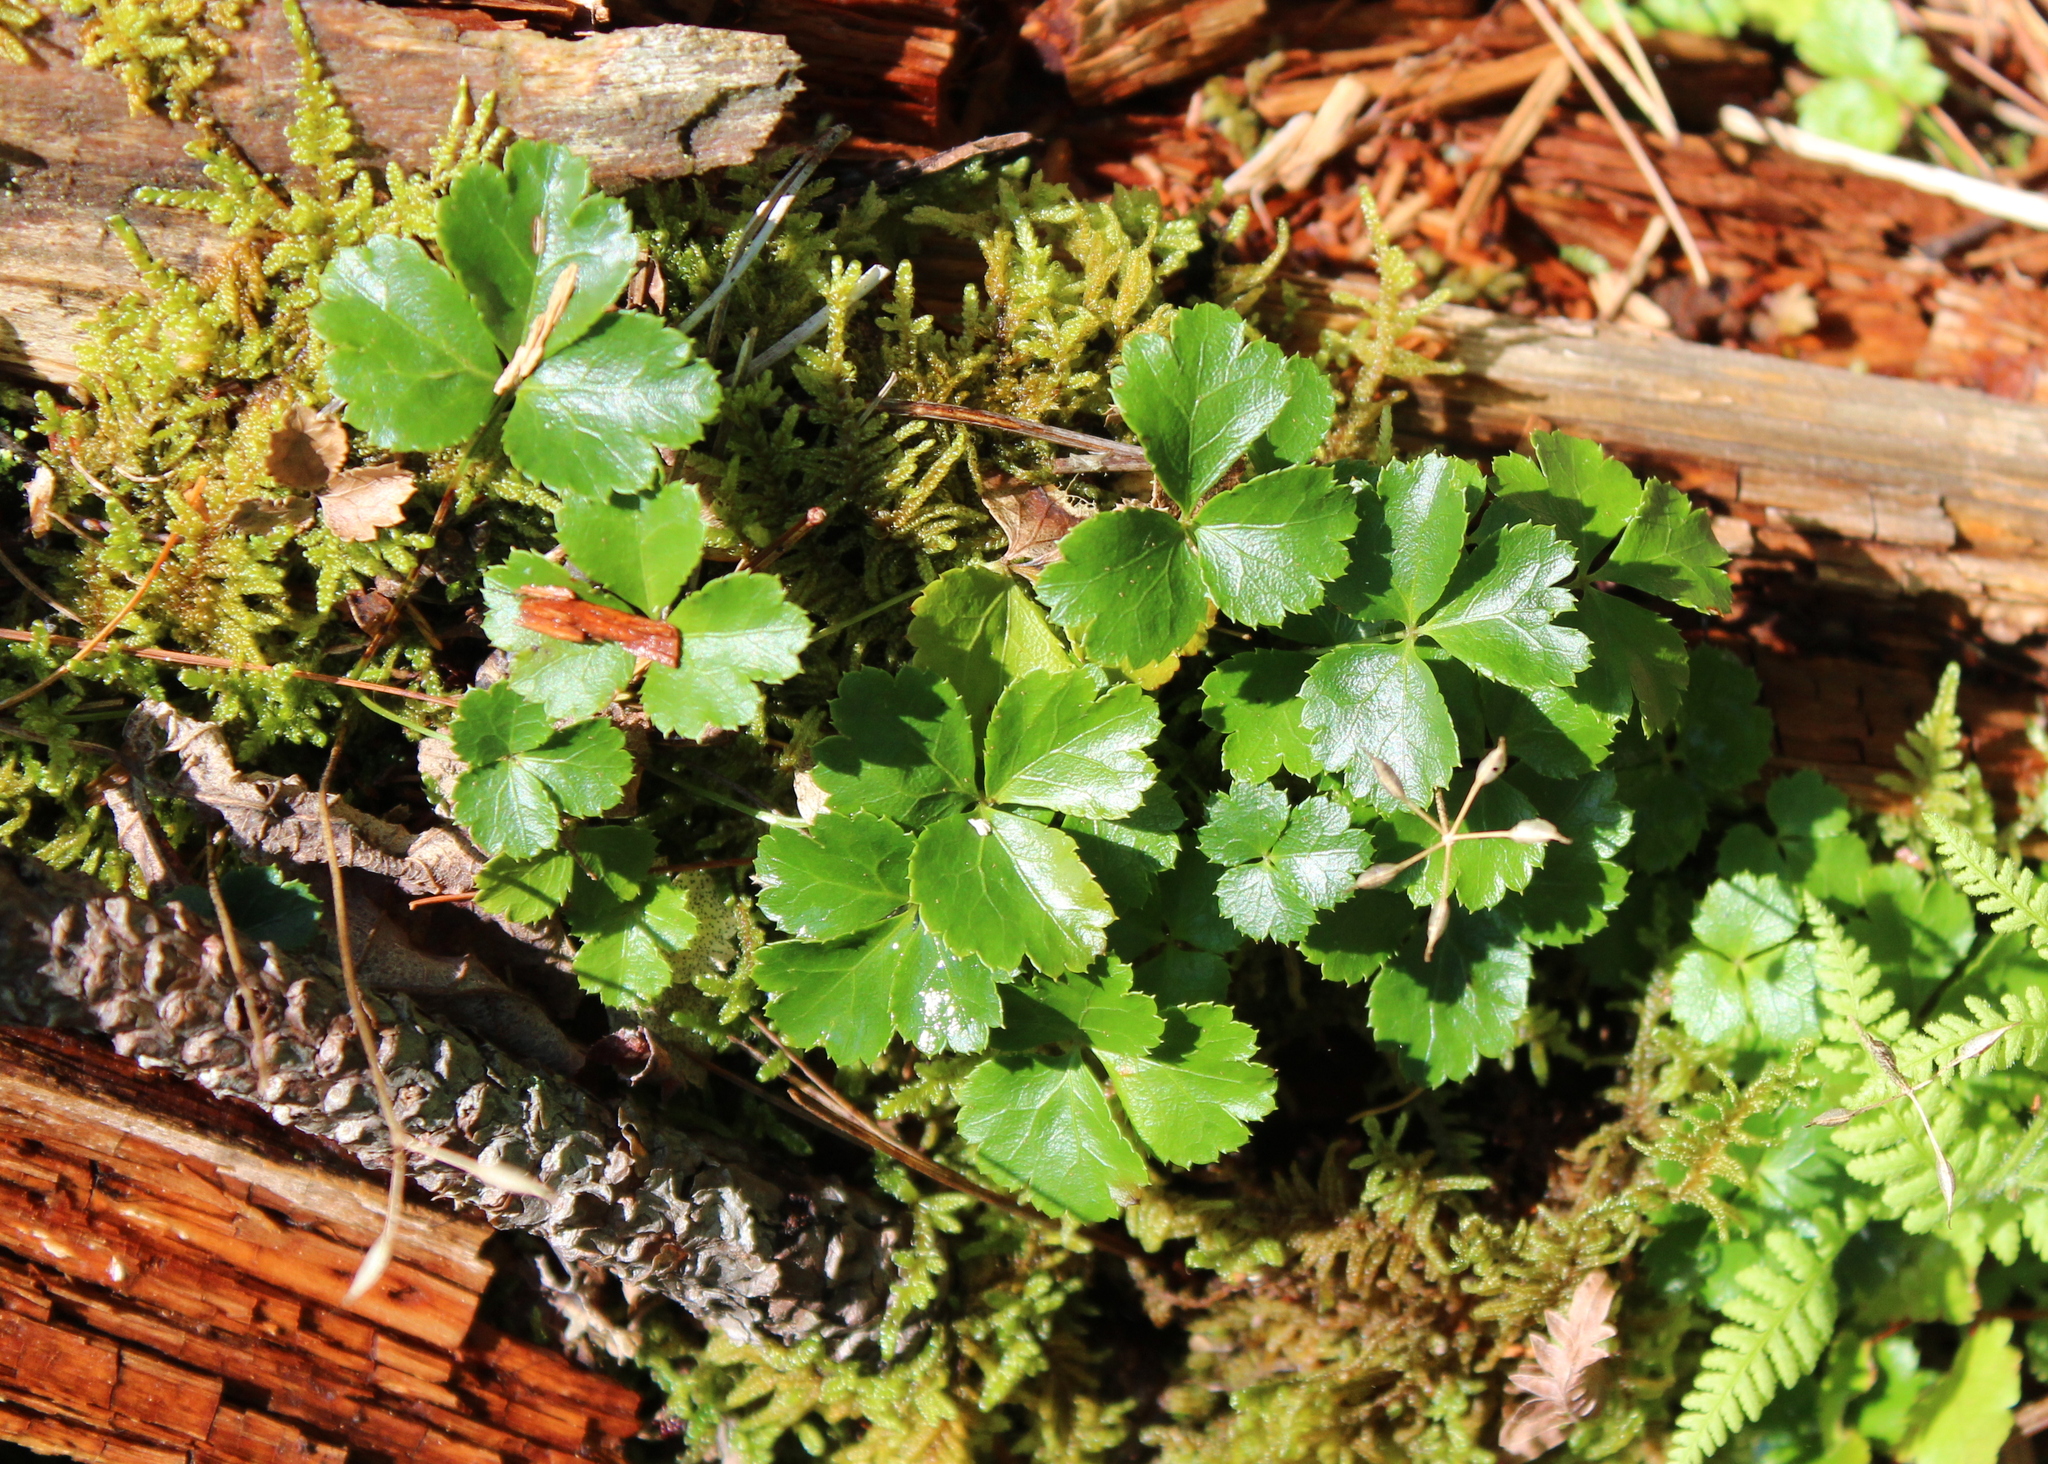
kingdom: Plantae
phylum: Tracheophyta
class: Magnoliopsida
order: Ranunculales
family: Ranunculaceae
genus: Coptis
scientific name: Coptis trifolia
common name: Canker-root
